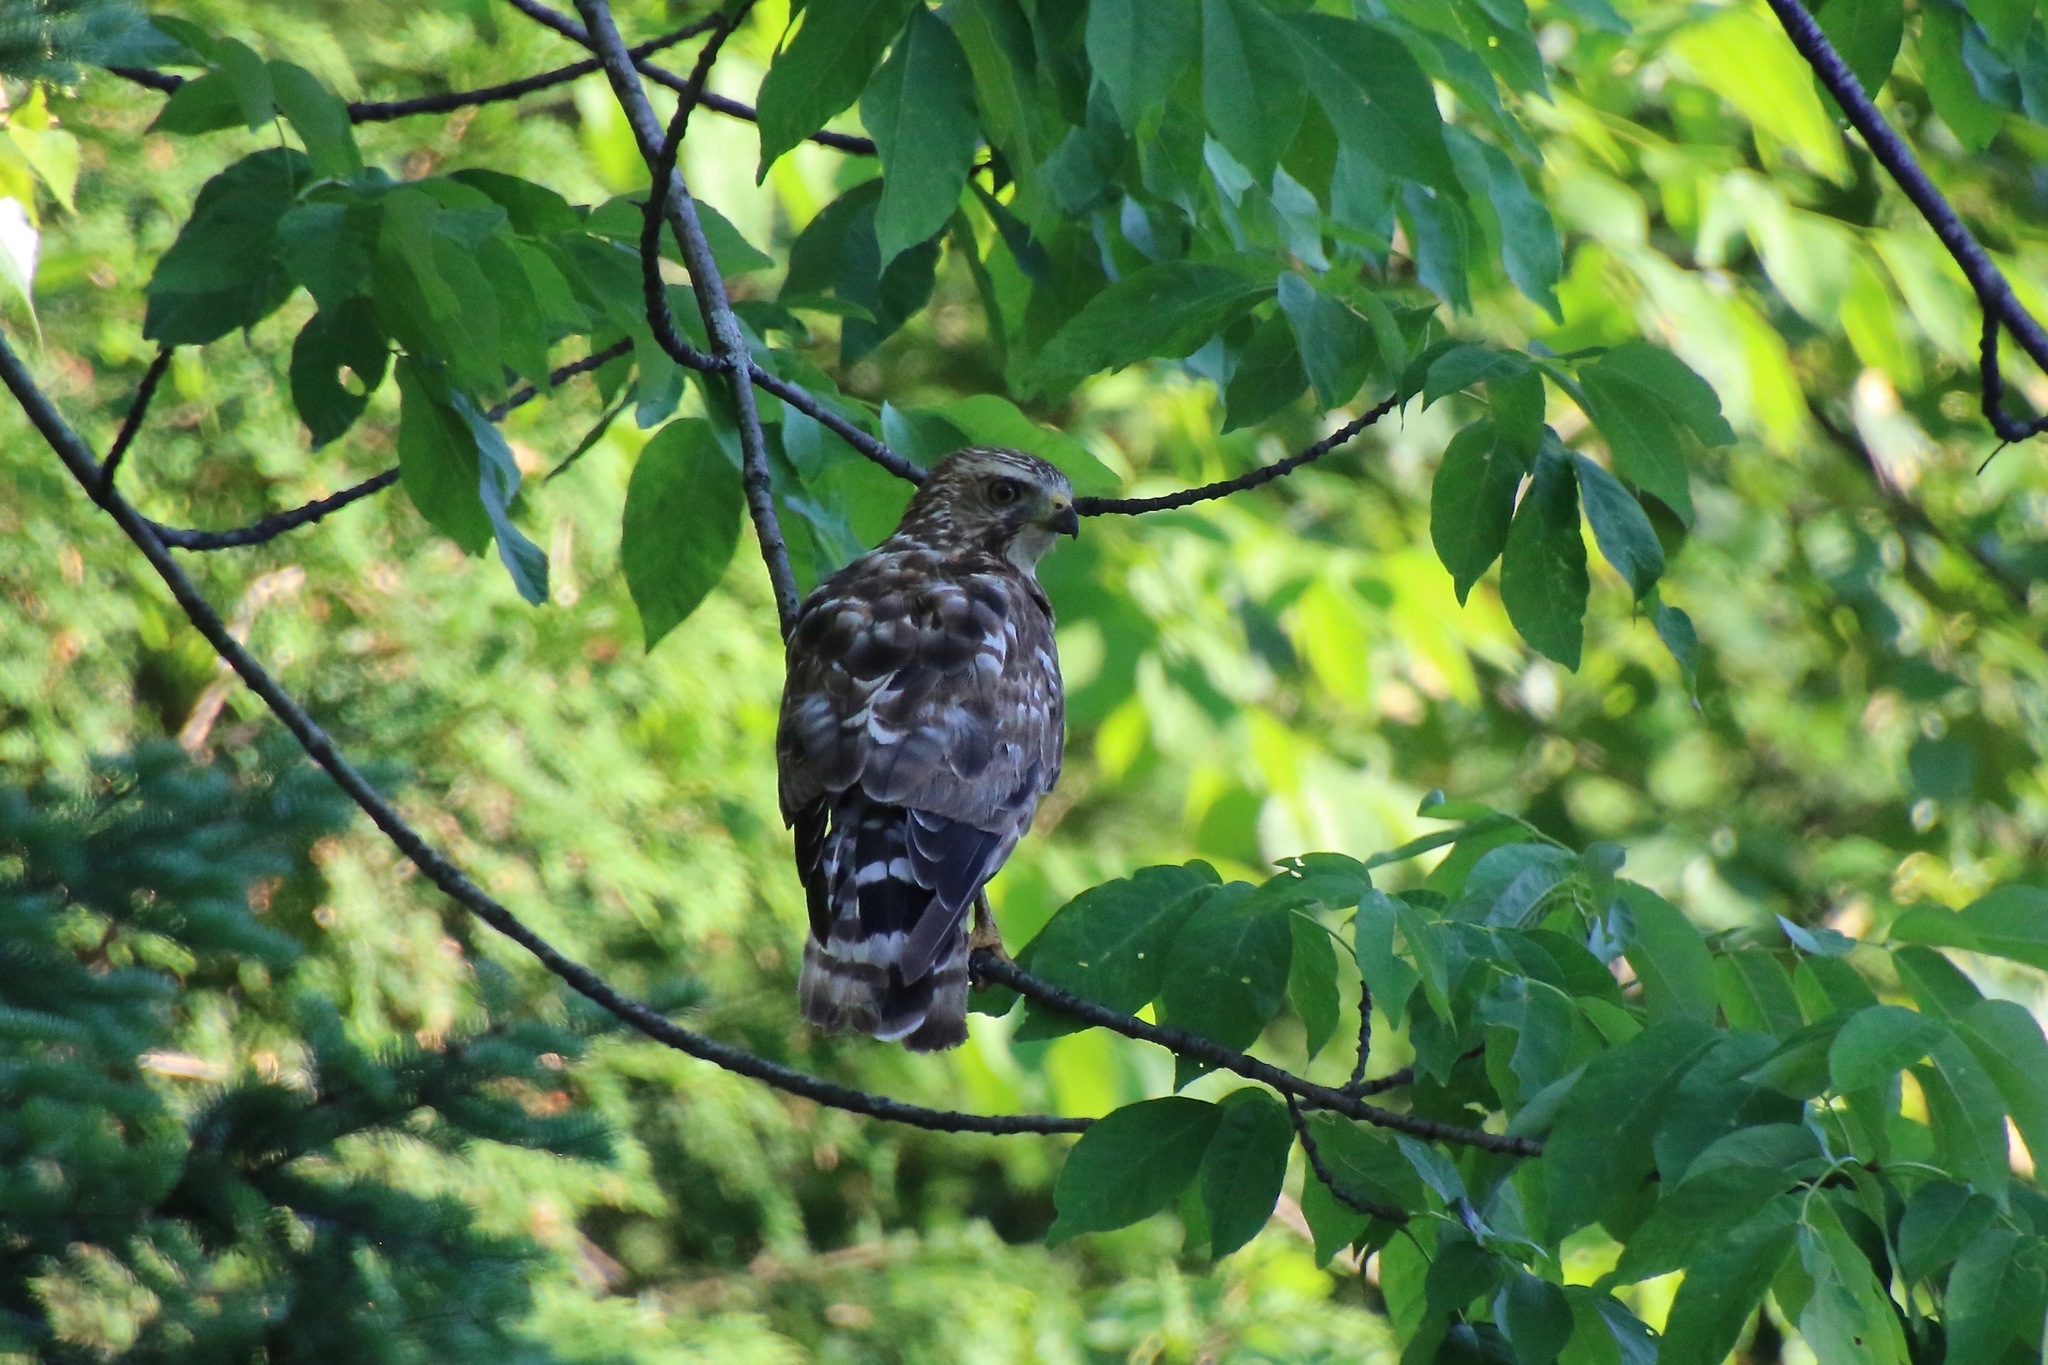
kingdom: Animalia
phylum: Chordata
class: Aves
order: Accipitriformes
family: Accipitridae
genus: Buteo
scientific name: Buteo platypterus
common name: Broad-winged hawk
